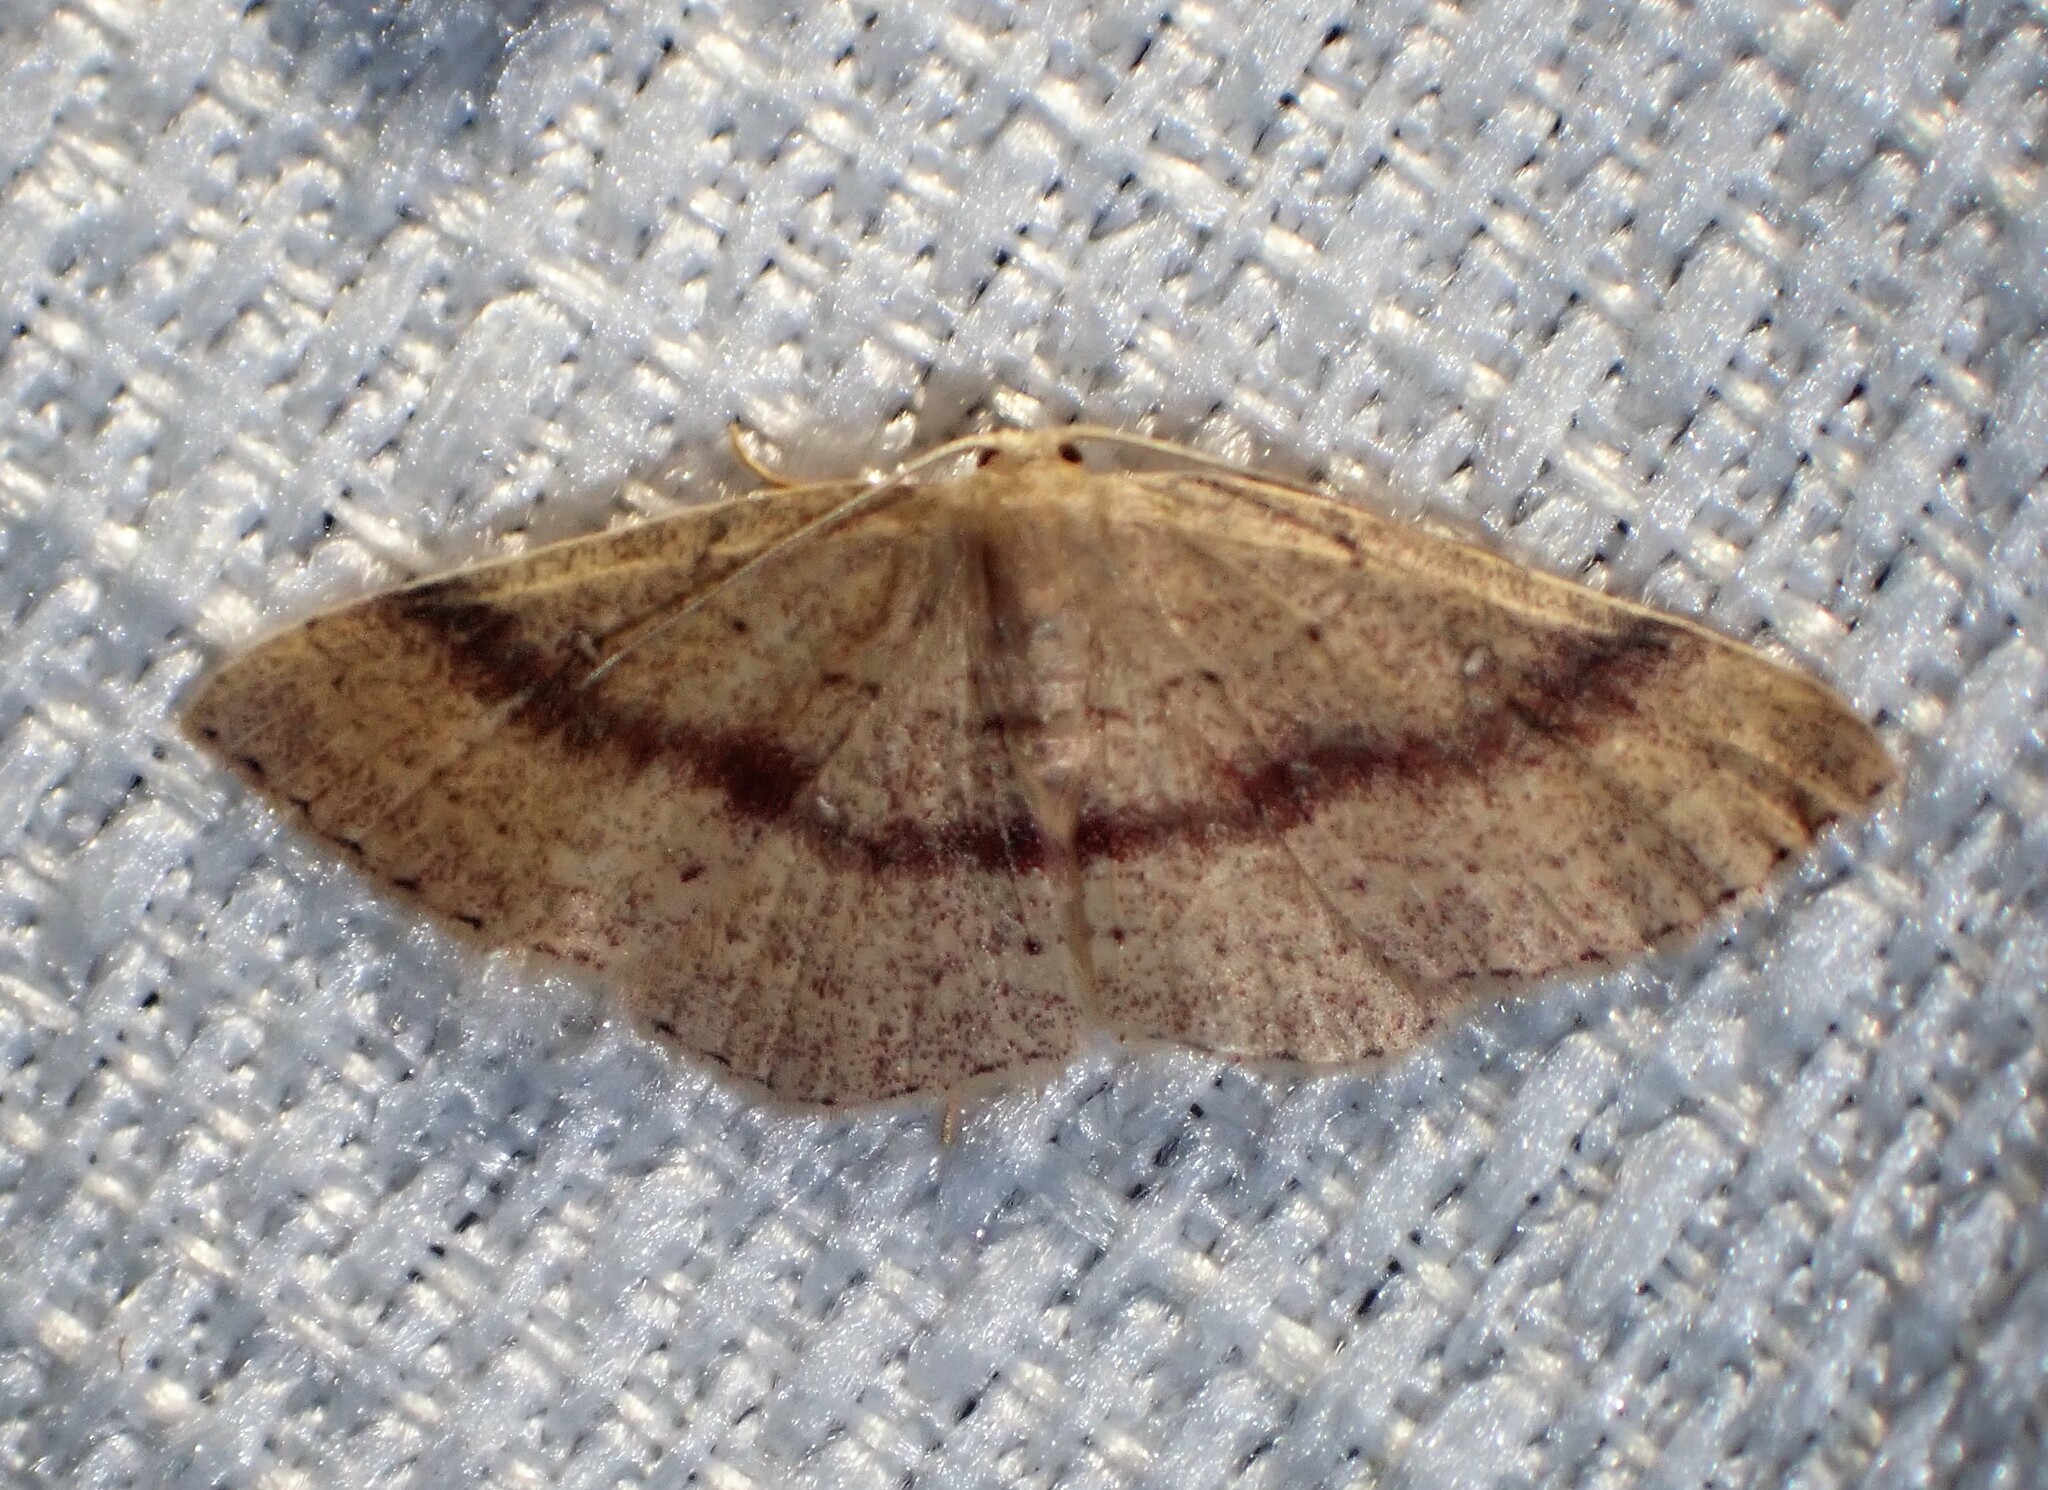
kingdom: Animalia
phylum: Arthropoda
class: Insecta
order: Lepidoptera
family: Geometridae
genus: Cyclophora
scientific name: Cyclophora azorensis
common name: Geometer moth
